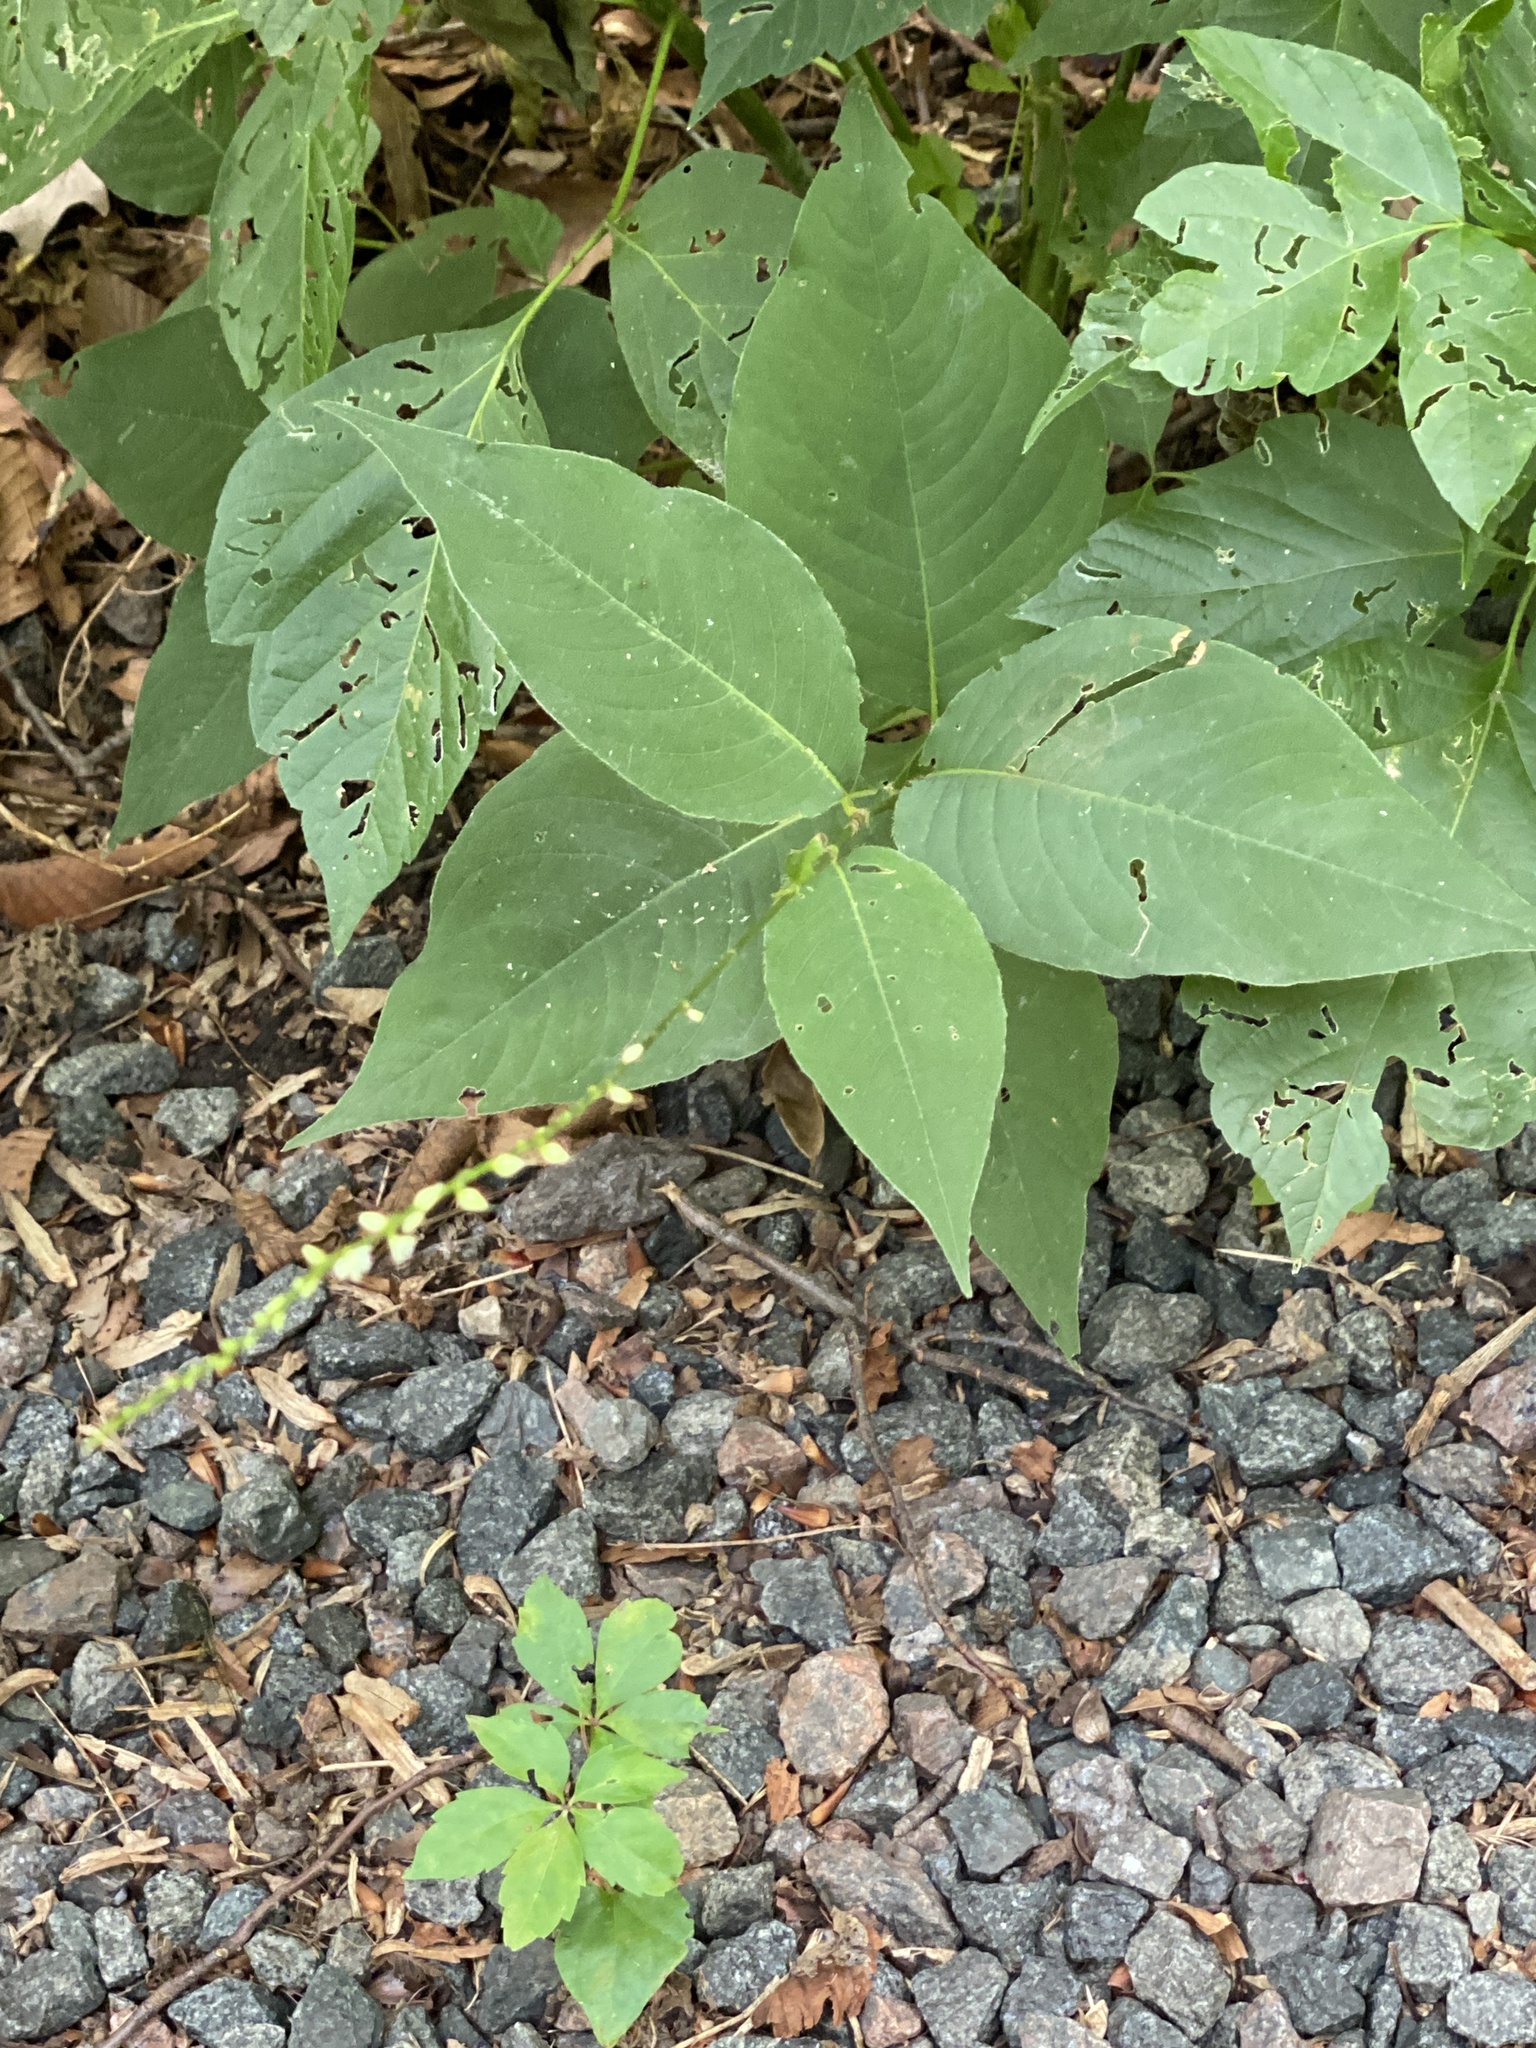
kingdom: Plantae
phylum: Tracheophyta
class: Magnoliopsida
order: Caryophyllales
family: Polygonaceae
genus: Persicaria
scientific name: Persicaria virginiana
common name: Jumpseed
